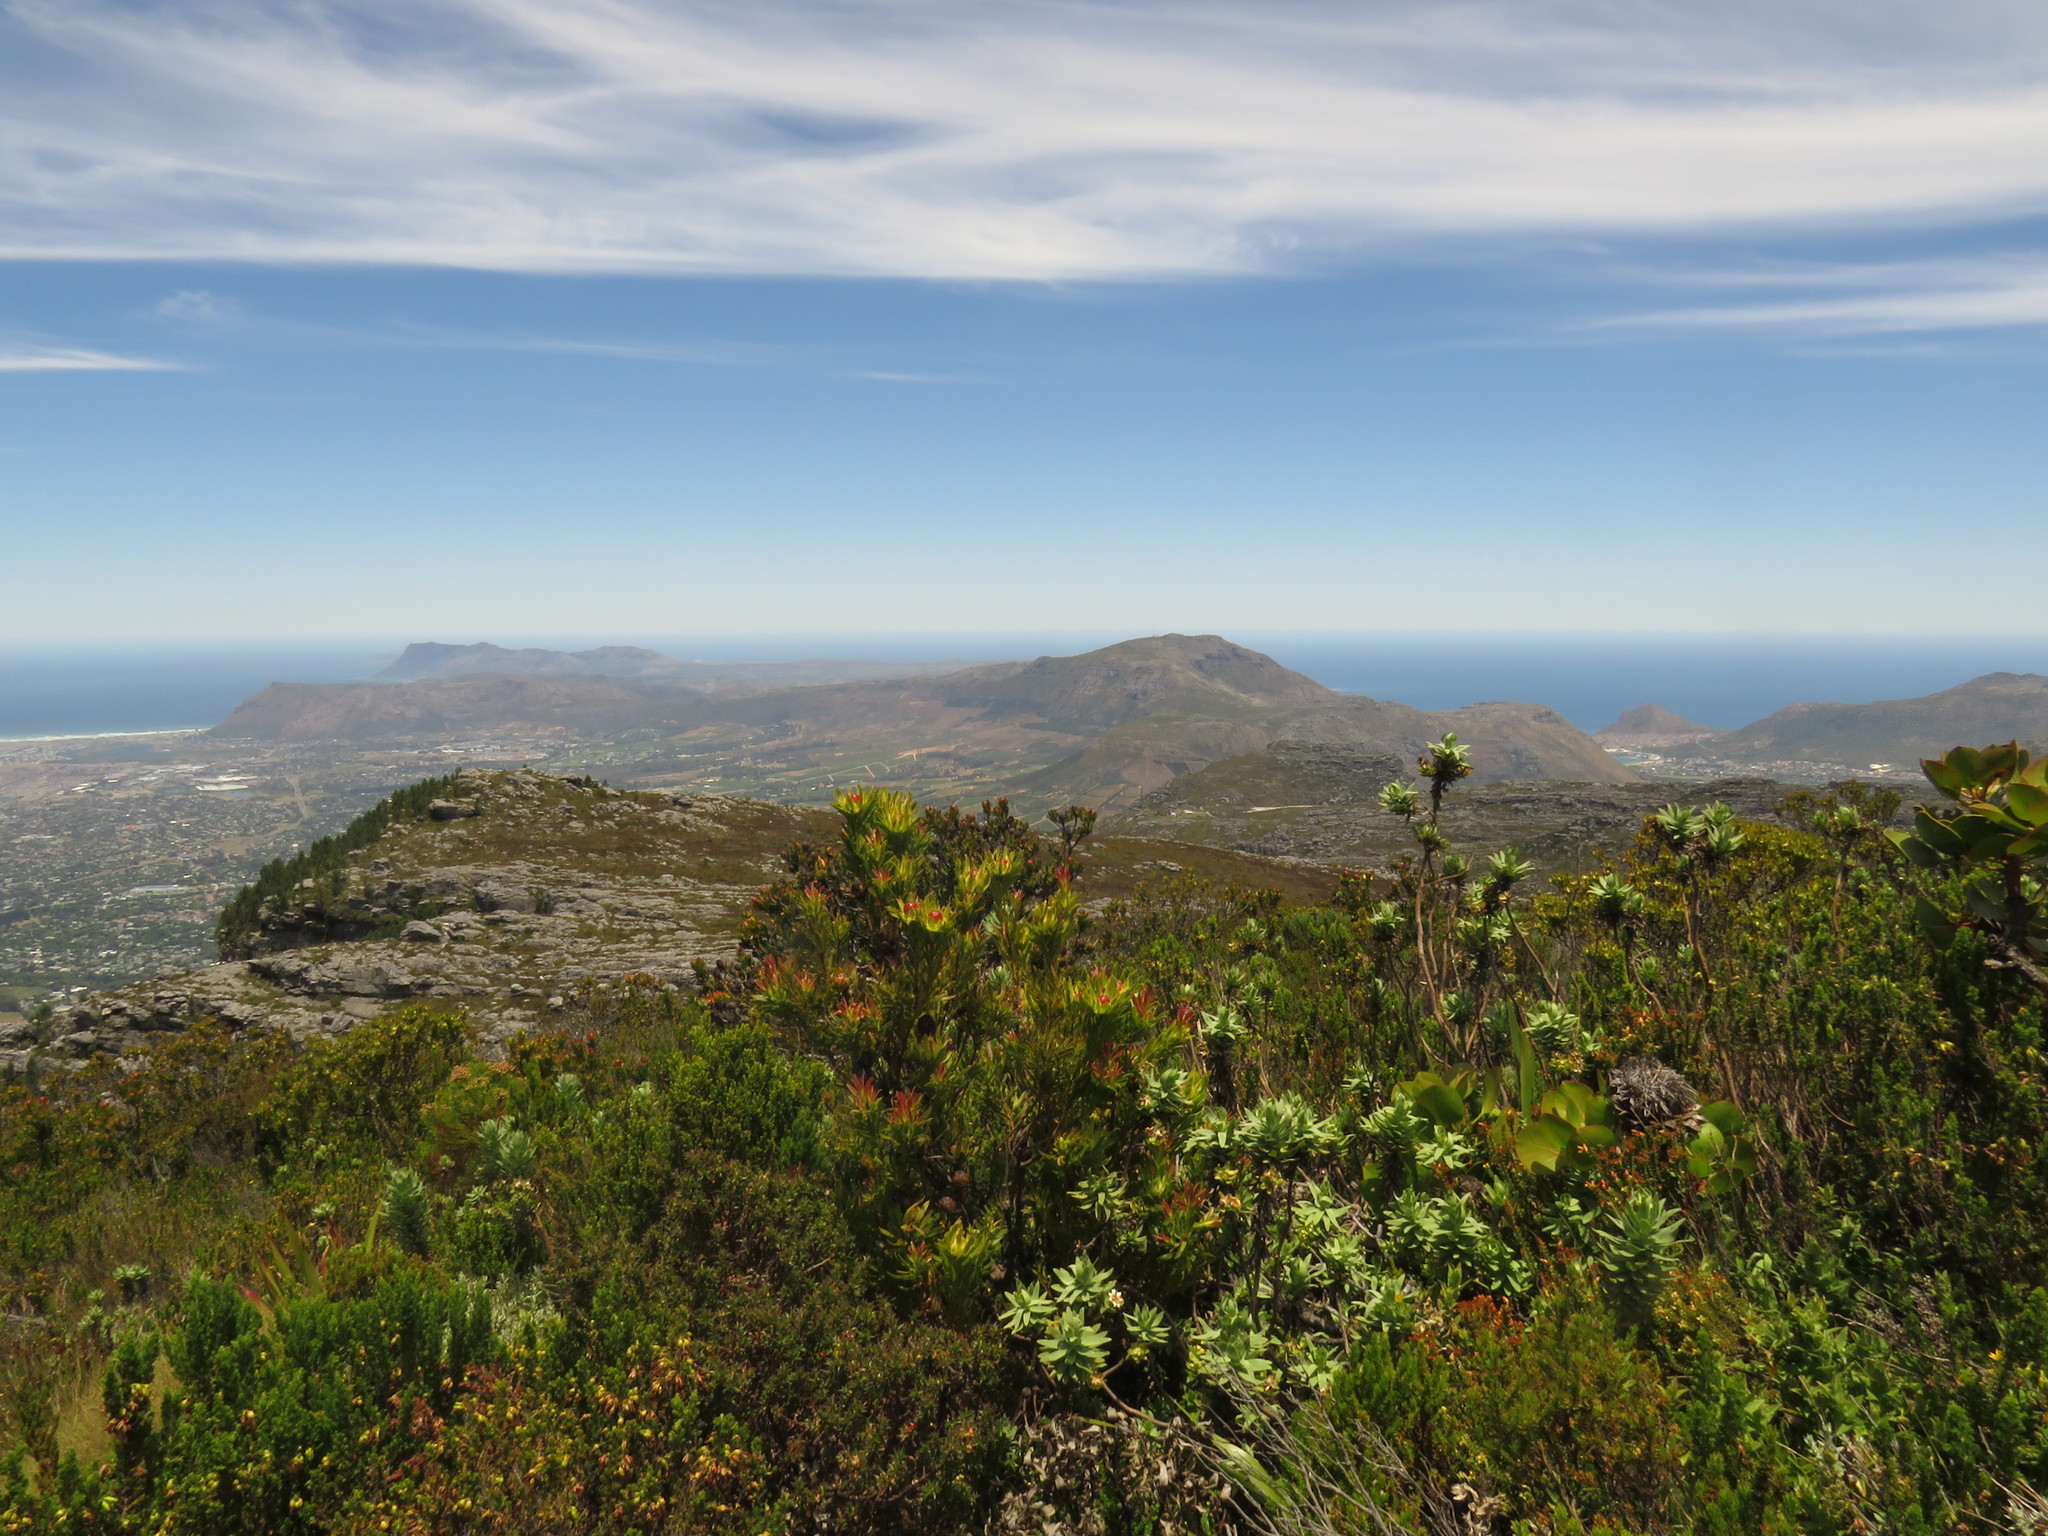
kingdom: Plantae
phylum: Tracheophyta
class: Magnoliopsida
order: Proteales
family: Proteaceae
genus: Protea
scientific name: Protea cynaroides
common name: King protea
